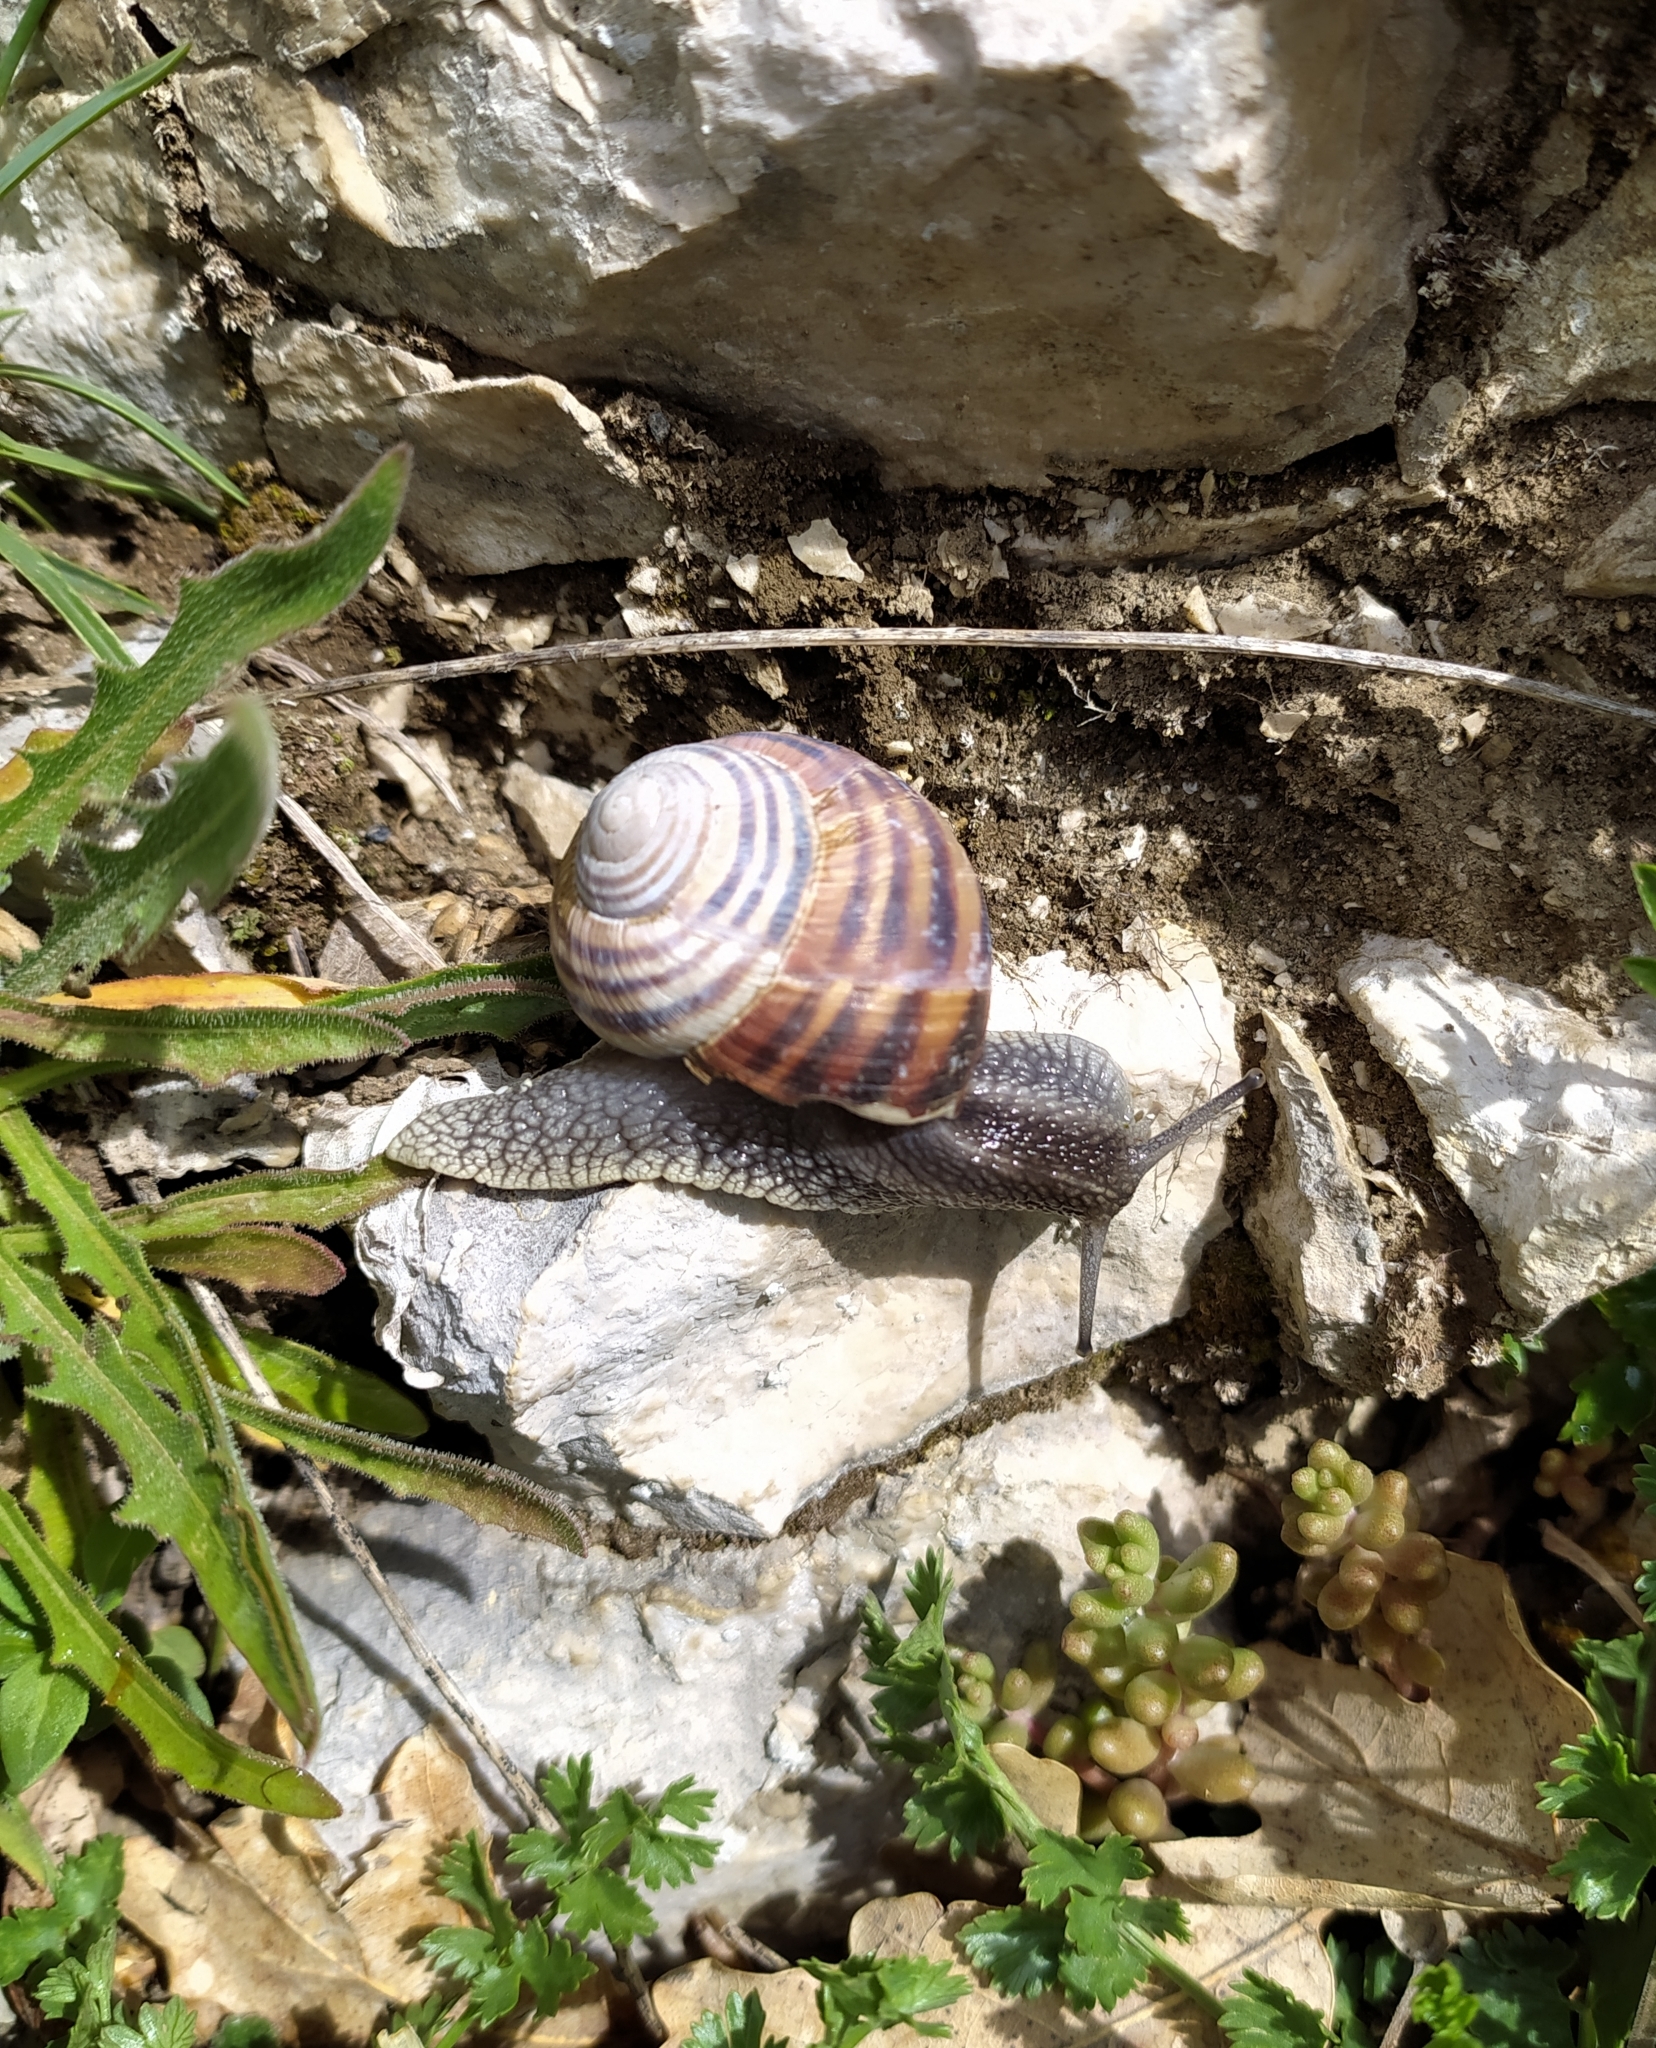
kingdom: Animalia
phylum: Mollusca
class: Gastropoda
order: Stylommatophora
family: Helicidae
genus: Helix
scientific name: Helix ligata
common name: Ligate snail
